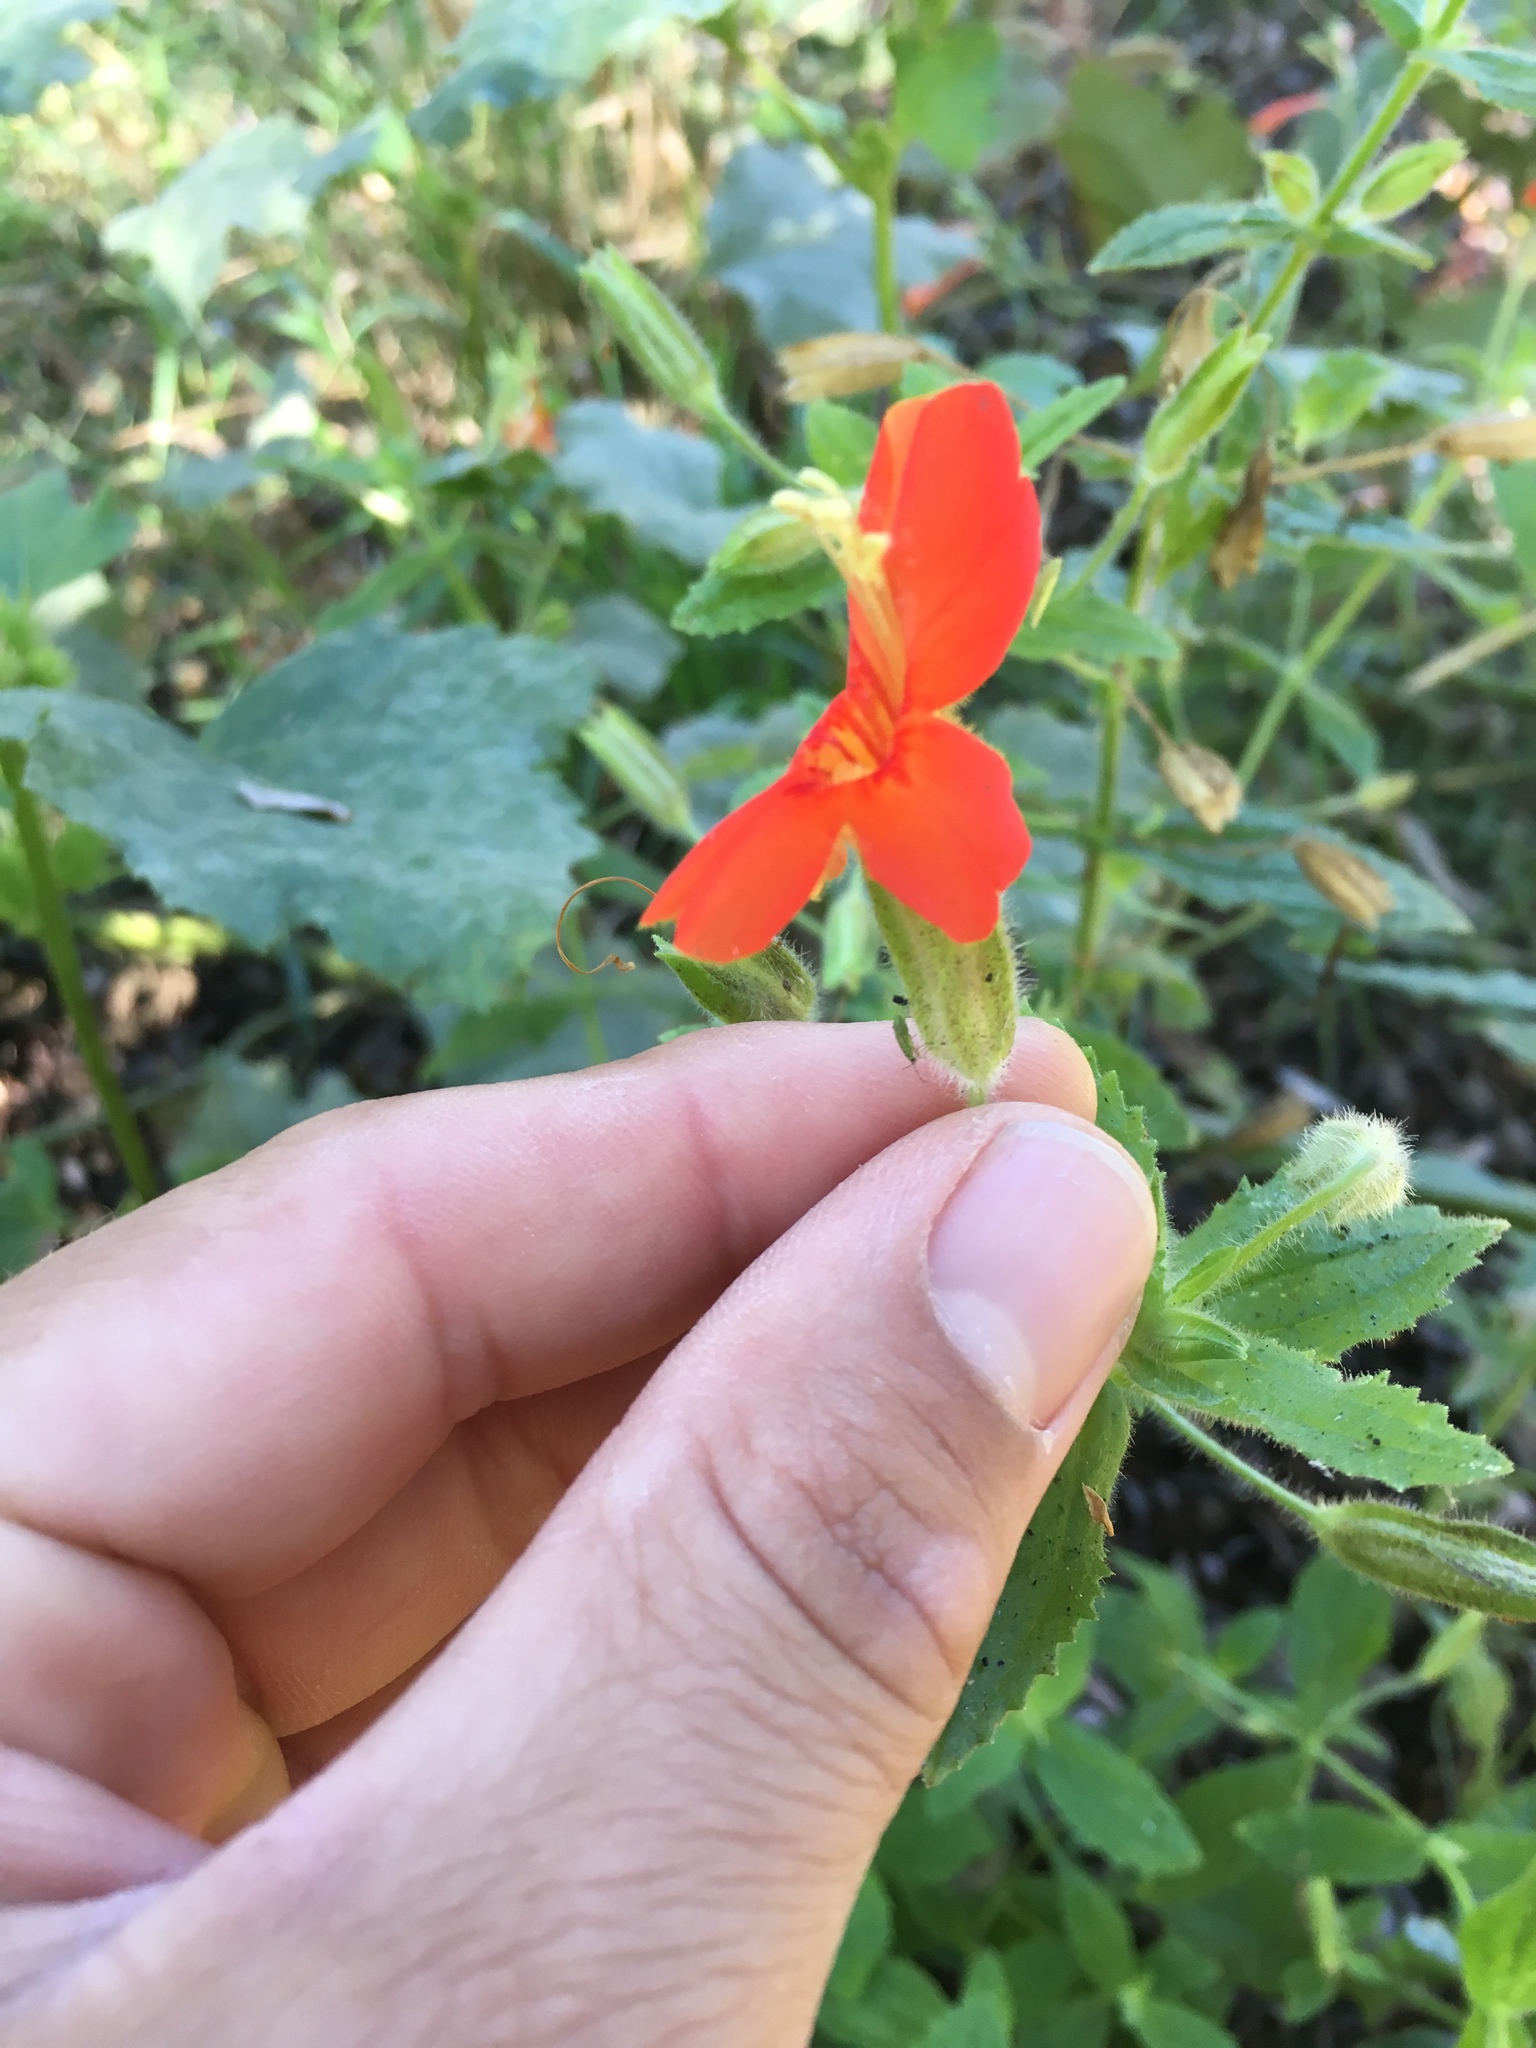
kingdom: Plantae
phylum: Tracheophyta
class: Magnoliopsida
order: Lamiales
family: Phrymaceae
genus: Erythranthe
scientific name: Erythranthe cardinalis
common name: Scarlet monkey-flower
